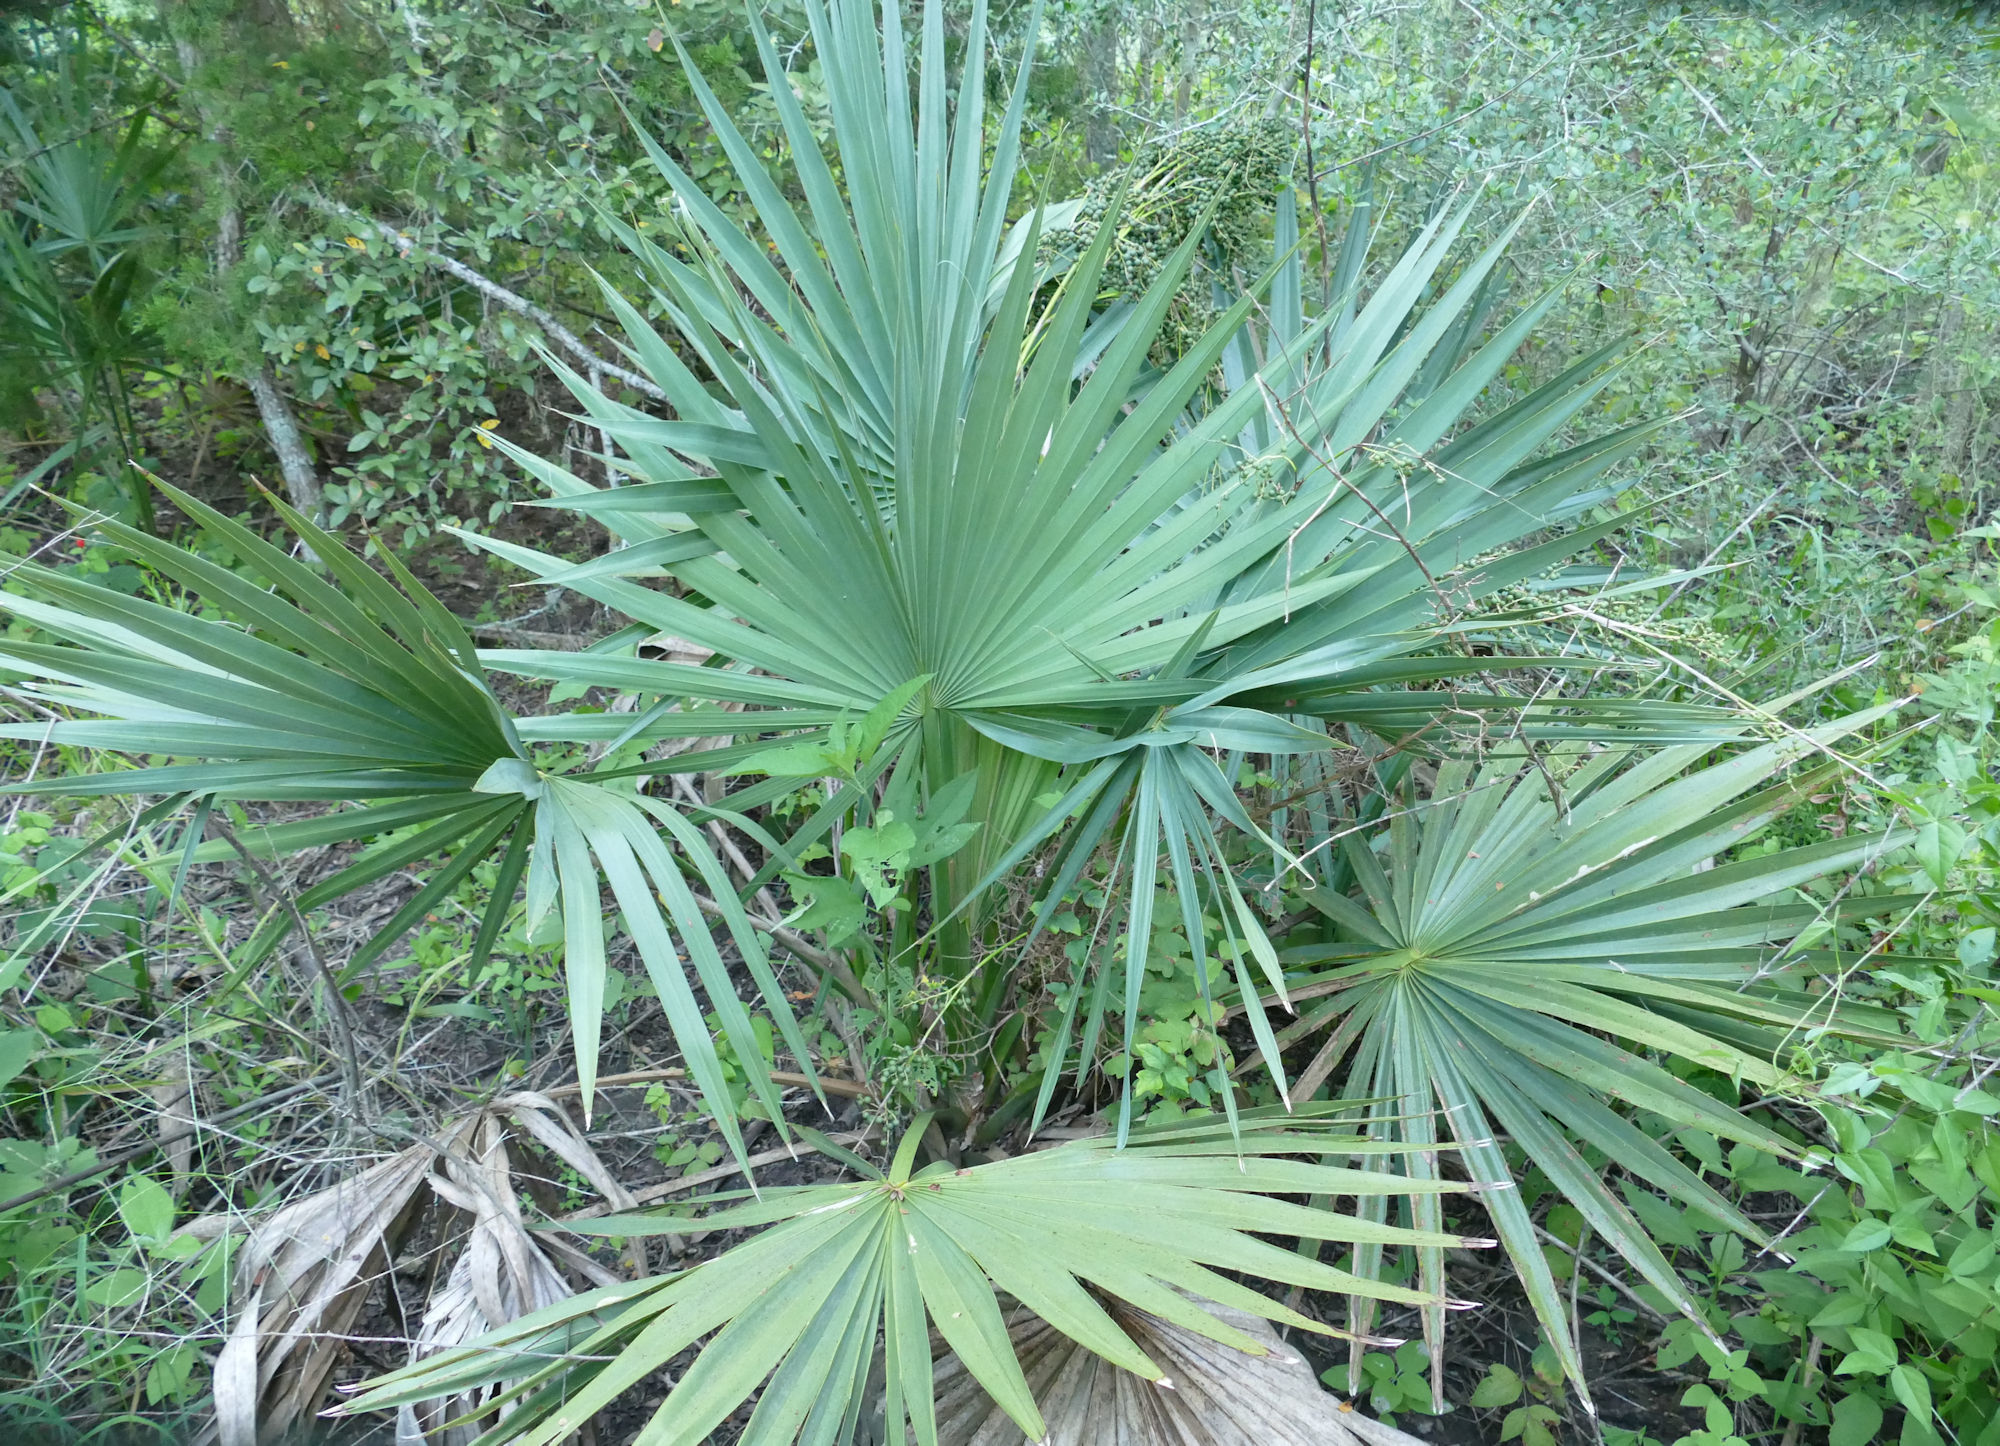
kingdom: Plantae
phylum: Tracheophyta
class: Liliopsida
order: Arecales
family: Arecaceae
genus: Sabal
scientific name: Sabal minor
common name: Dwarf palmetto
